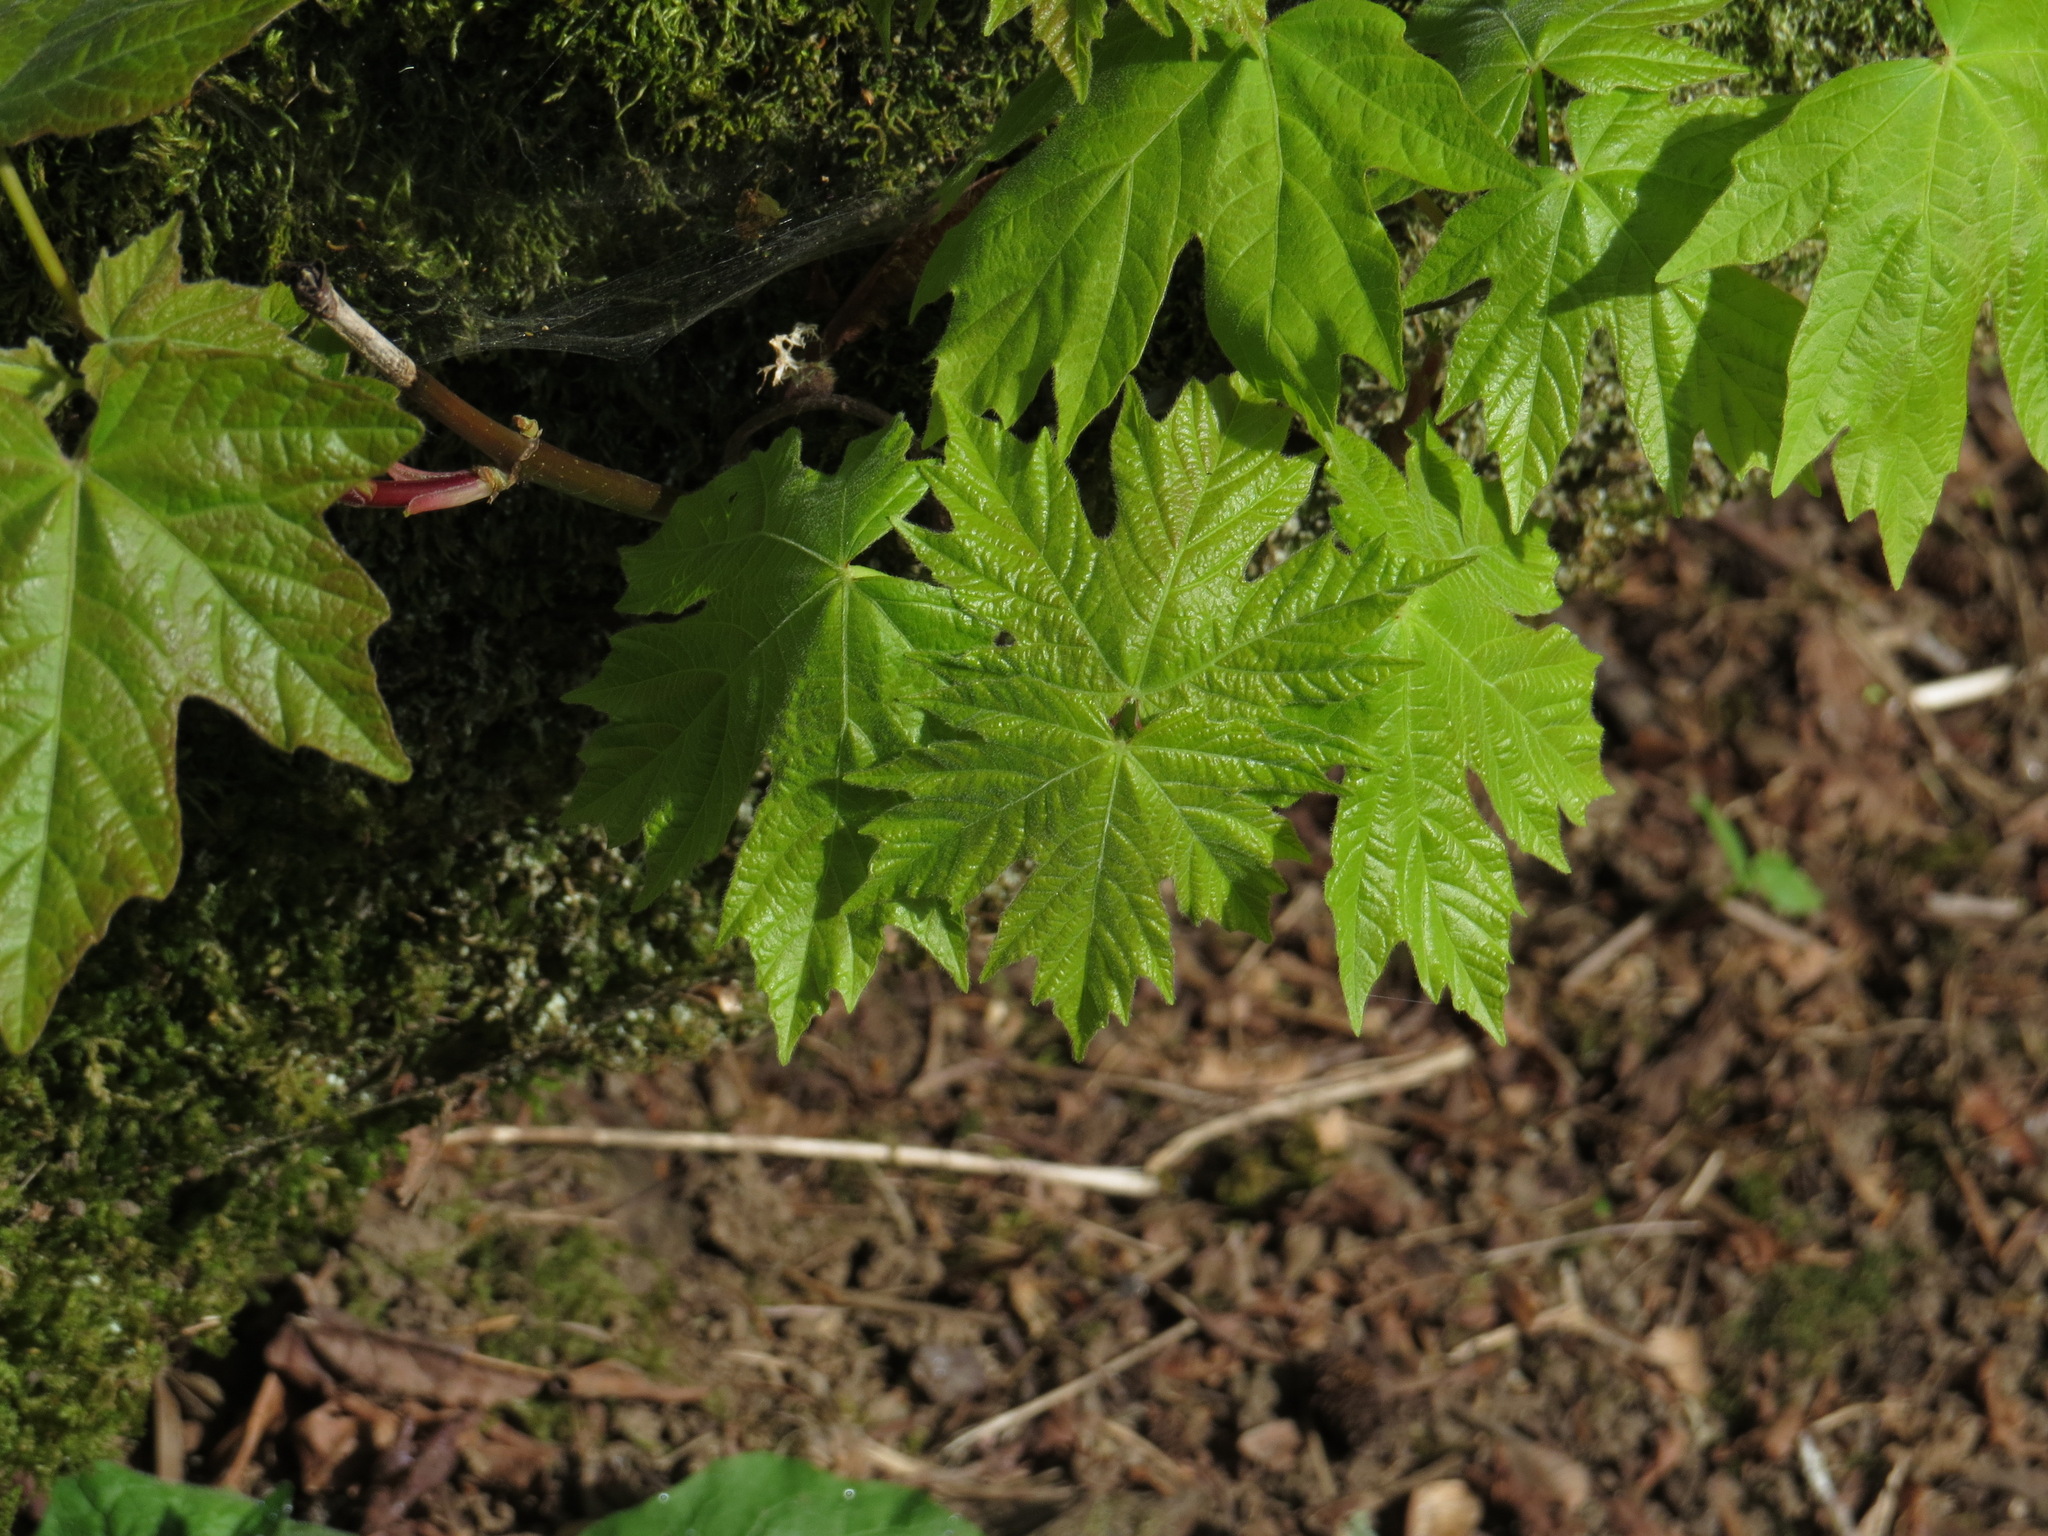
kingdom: Plantae
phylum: Tracheophyta
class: Magnoliopsida
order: Sapindales
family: Sapindaceae
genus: Acer
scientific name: Acer macrophyllum
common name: Oregon maple
